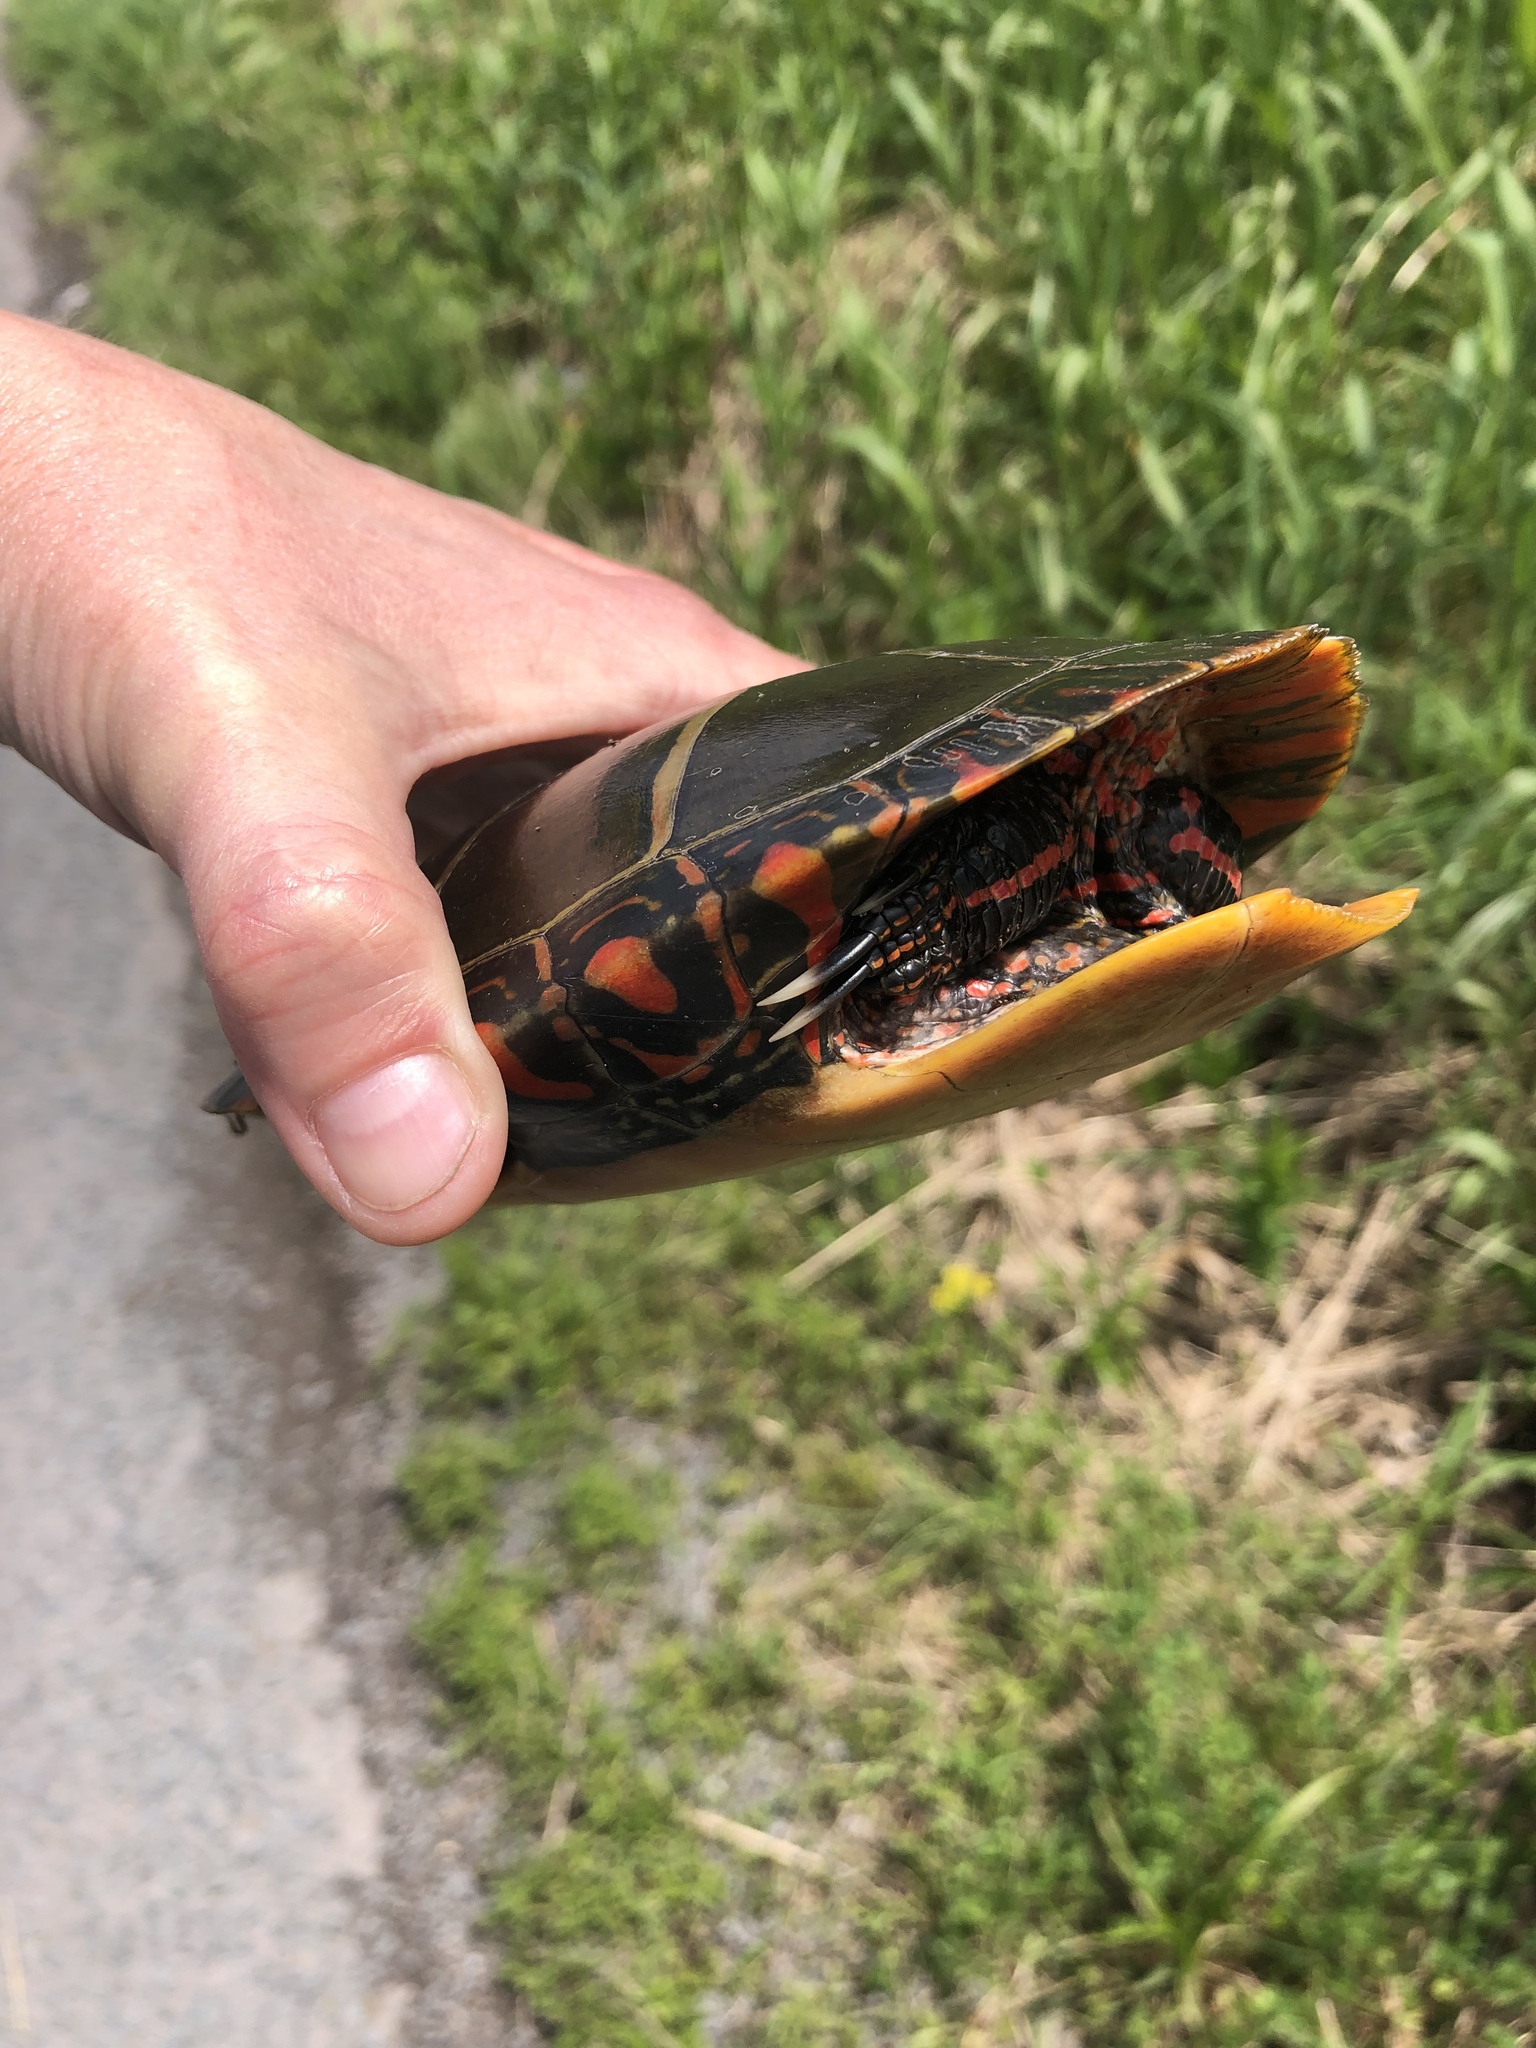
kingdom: Animalia
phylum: Chordata
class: Testudines
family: Emydidae
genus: Chrysemys
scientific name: Chrysemys picta
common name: Painted turtle
